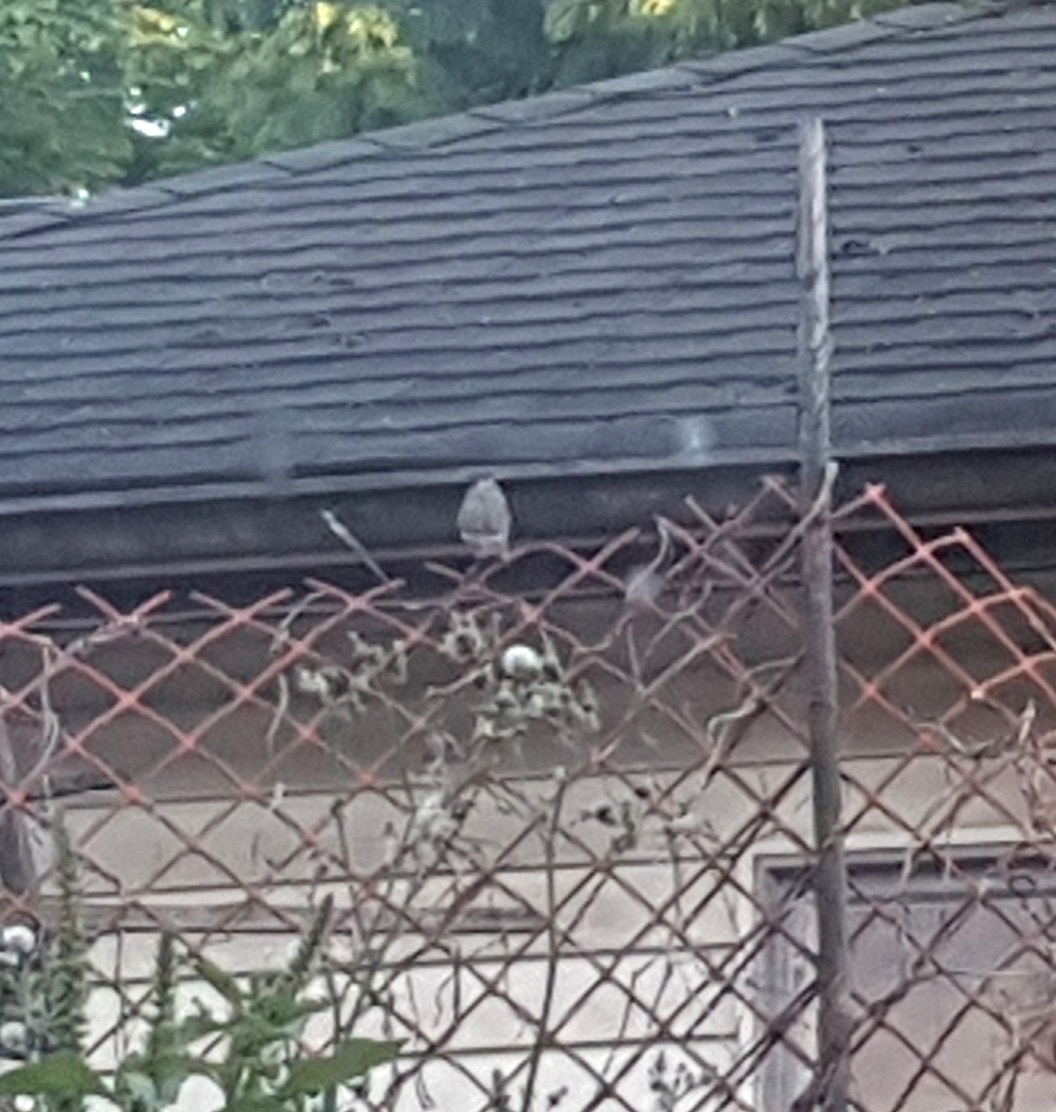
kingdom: Animalia
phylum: Chordata
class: Aves
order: Passeriformes
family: Fringillidae
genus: Haemorhous
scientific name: Haemorhous mexicanus
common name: House finch
